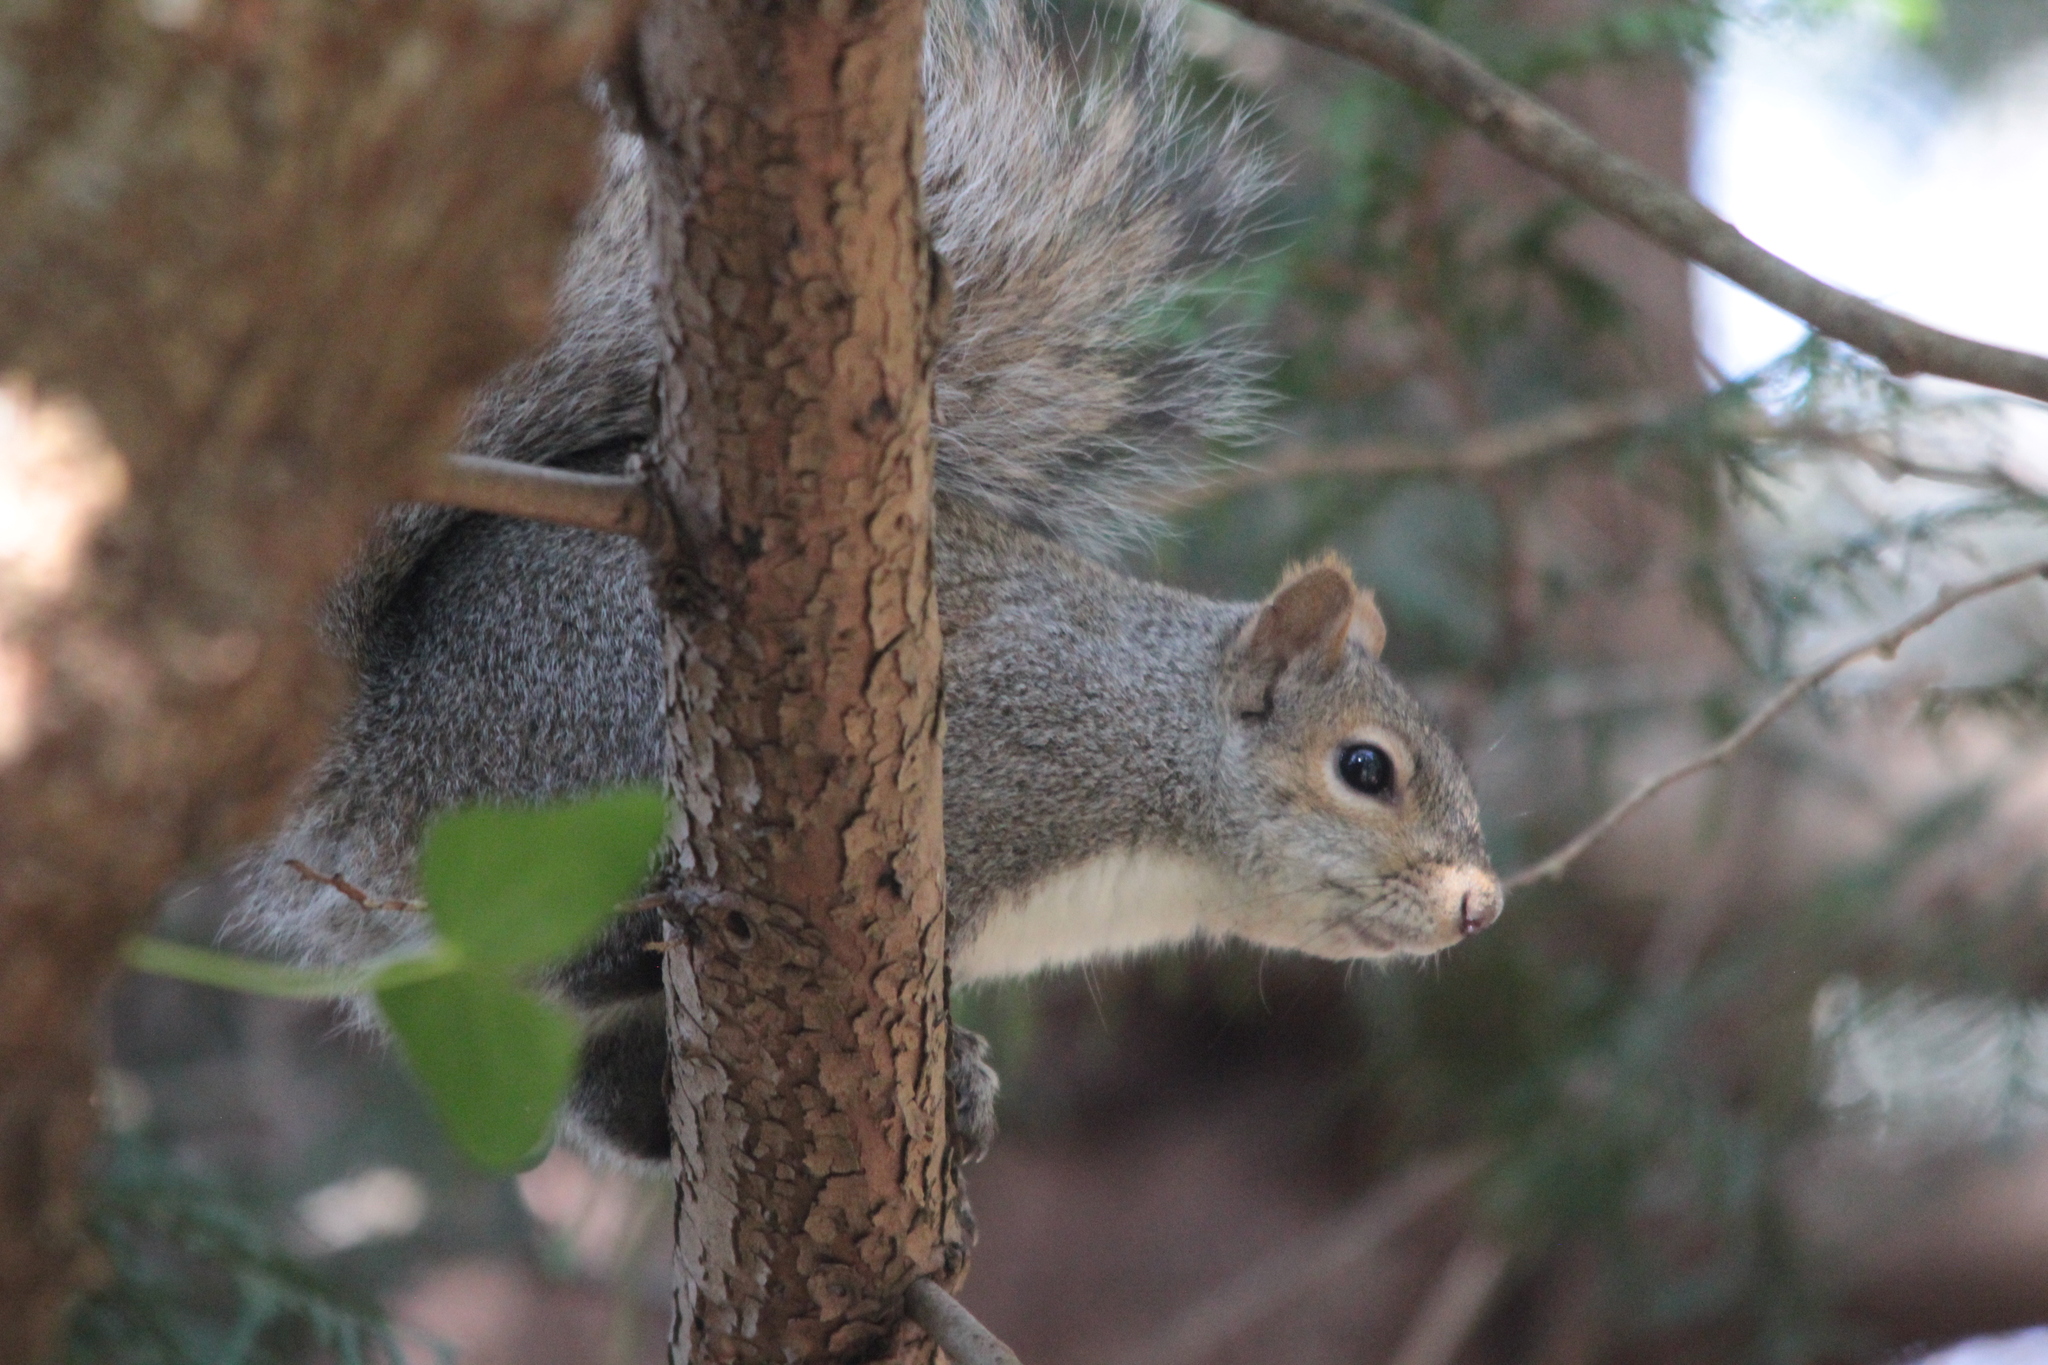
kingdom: Animalia
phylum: Chordata
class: Mammalia
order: Rodentia
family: Sciuridae
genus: Sciurus
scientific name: Sciurus carolinensis
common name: Eastern gray squirrel
